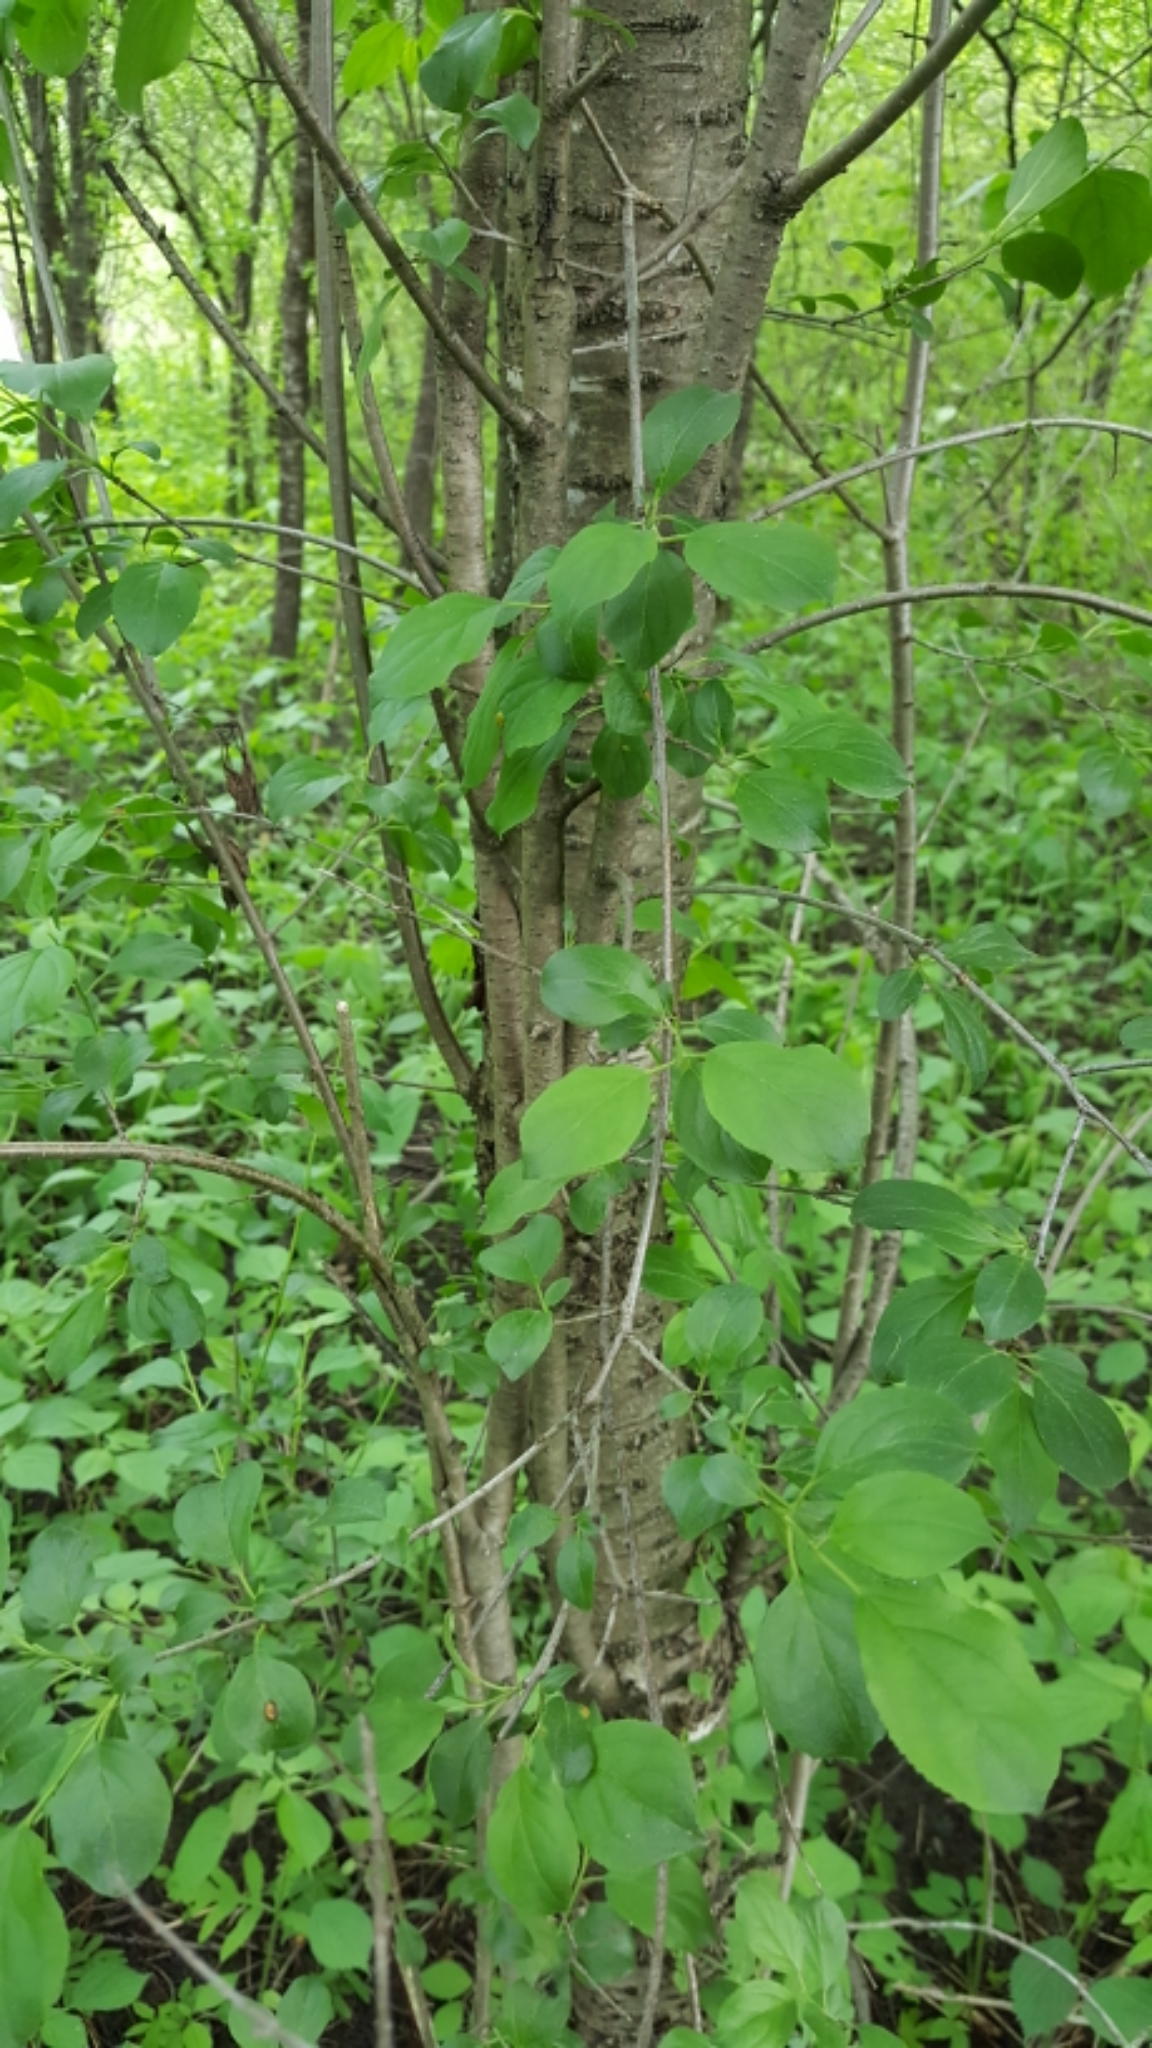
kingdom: Plantae
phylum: Tracheophyta
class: Magnoliopsida
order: Rosales
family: Rhamnaceae
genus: Rhamnus
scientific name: Rhamnus cathartica
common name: Common buckthorn
